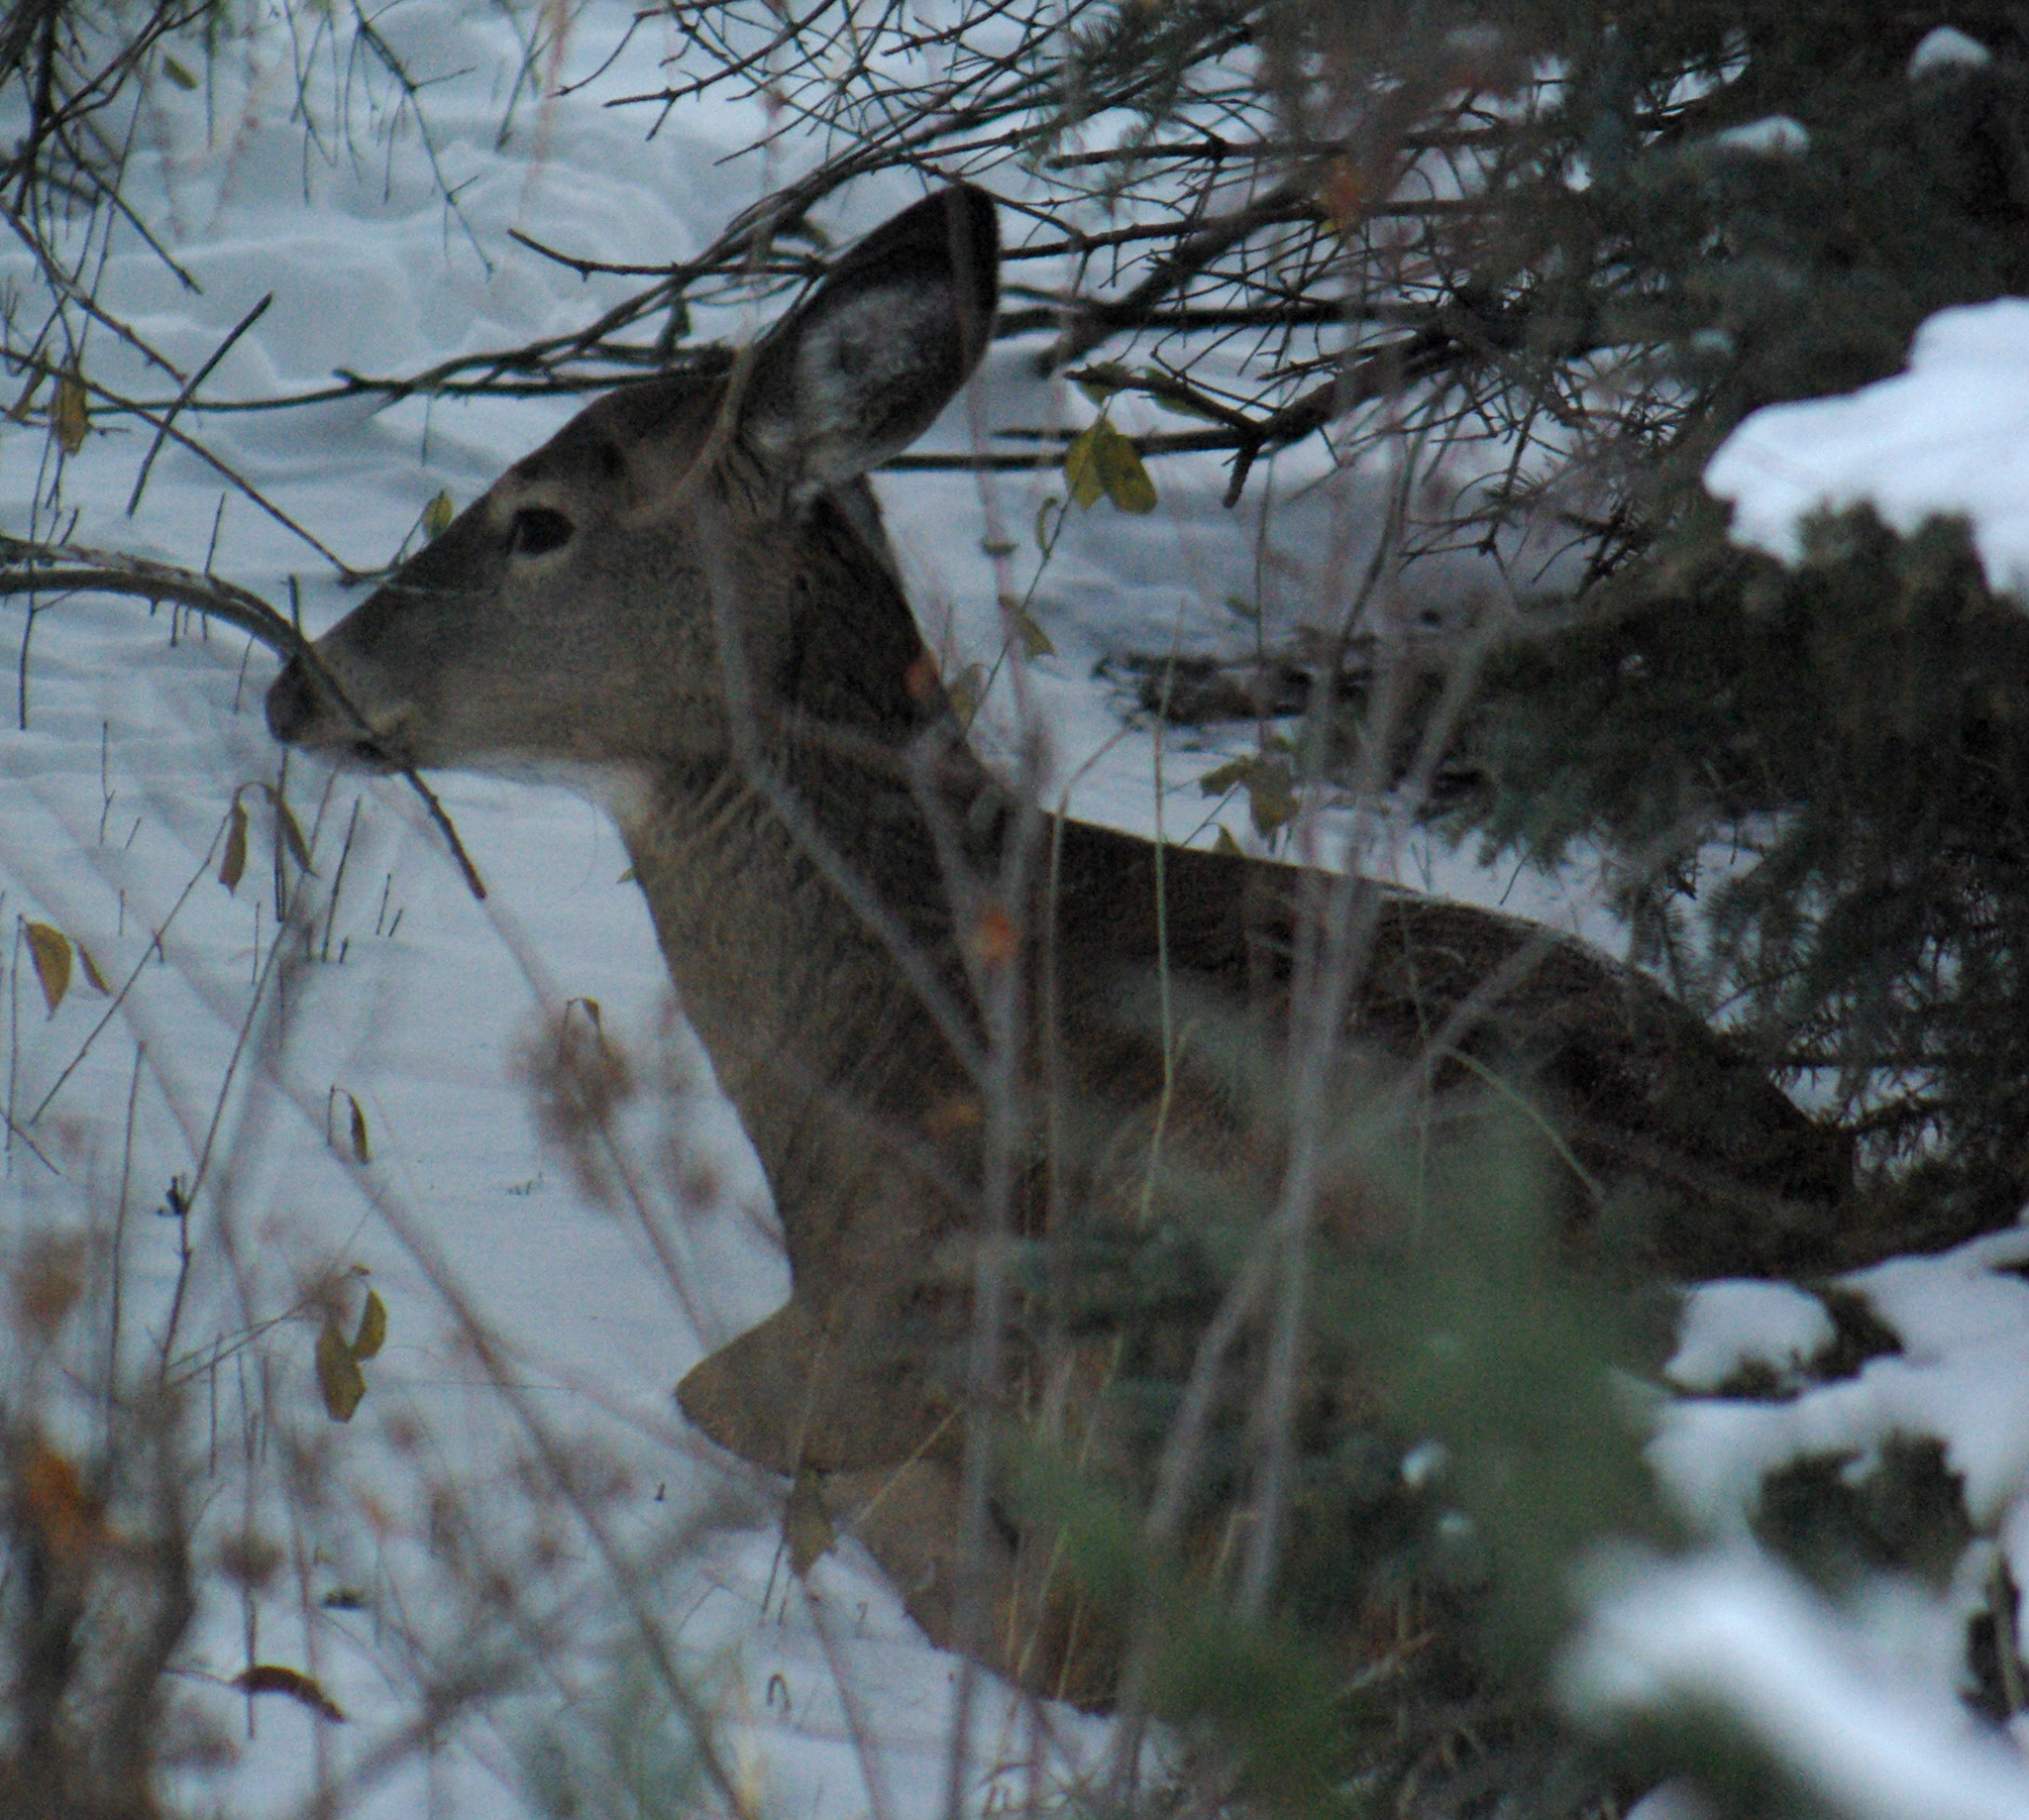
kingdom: Animalia
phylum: Chordata
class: Mammalia
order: Artiodactyla
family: Cervidae
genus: Odocoileus
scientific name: Odocoileus virginianus
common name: White-tailed deer
